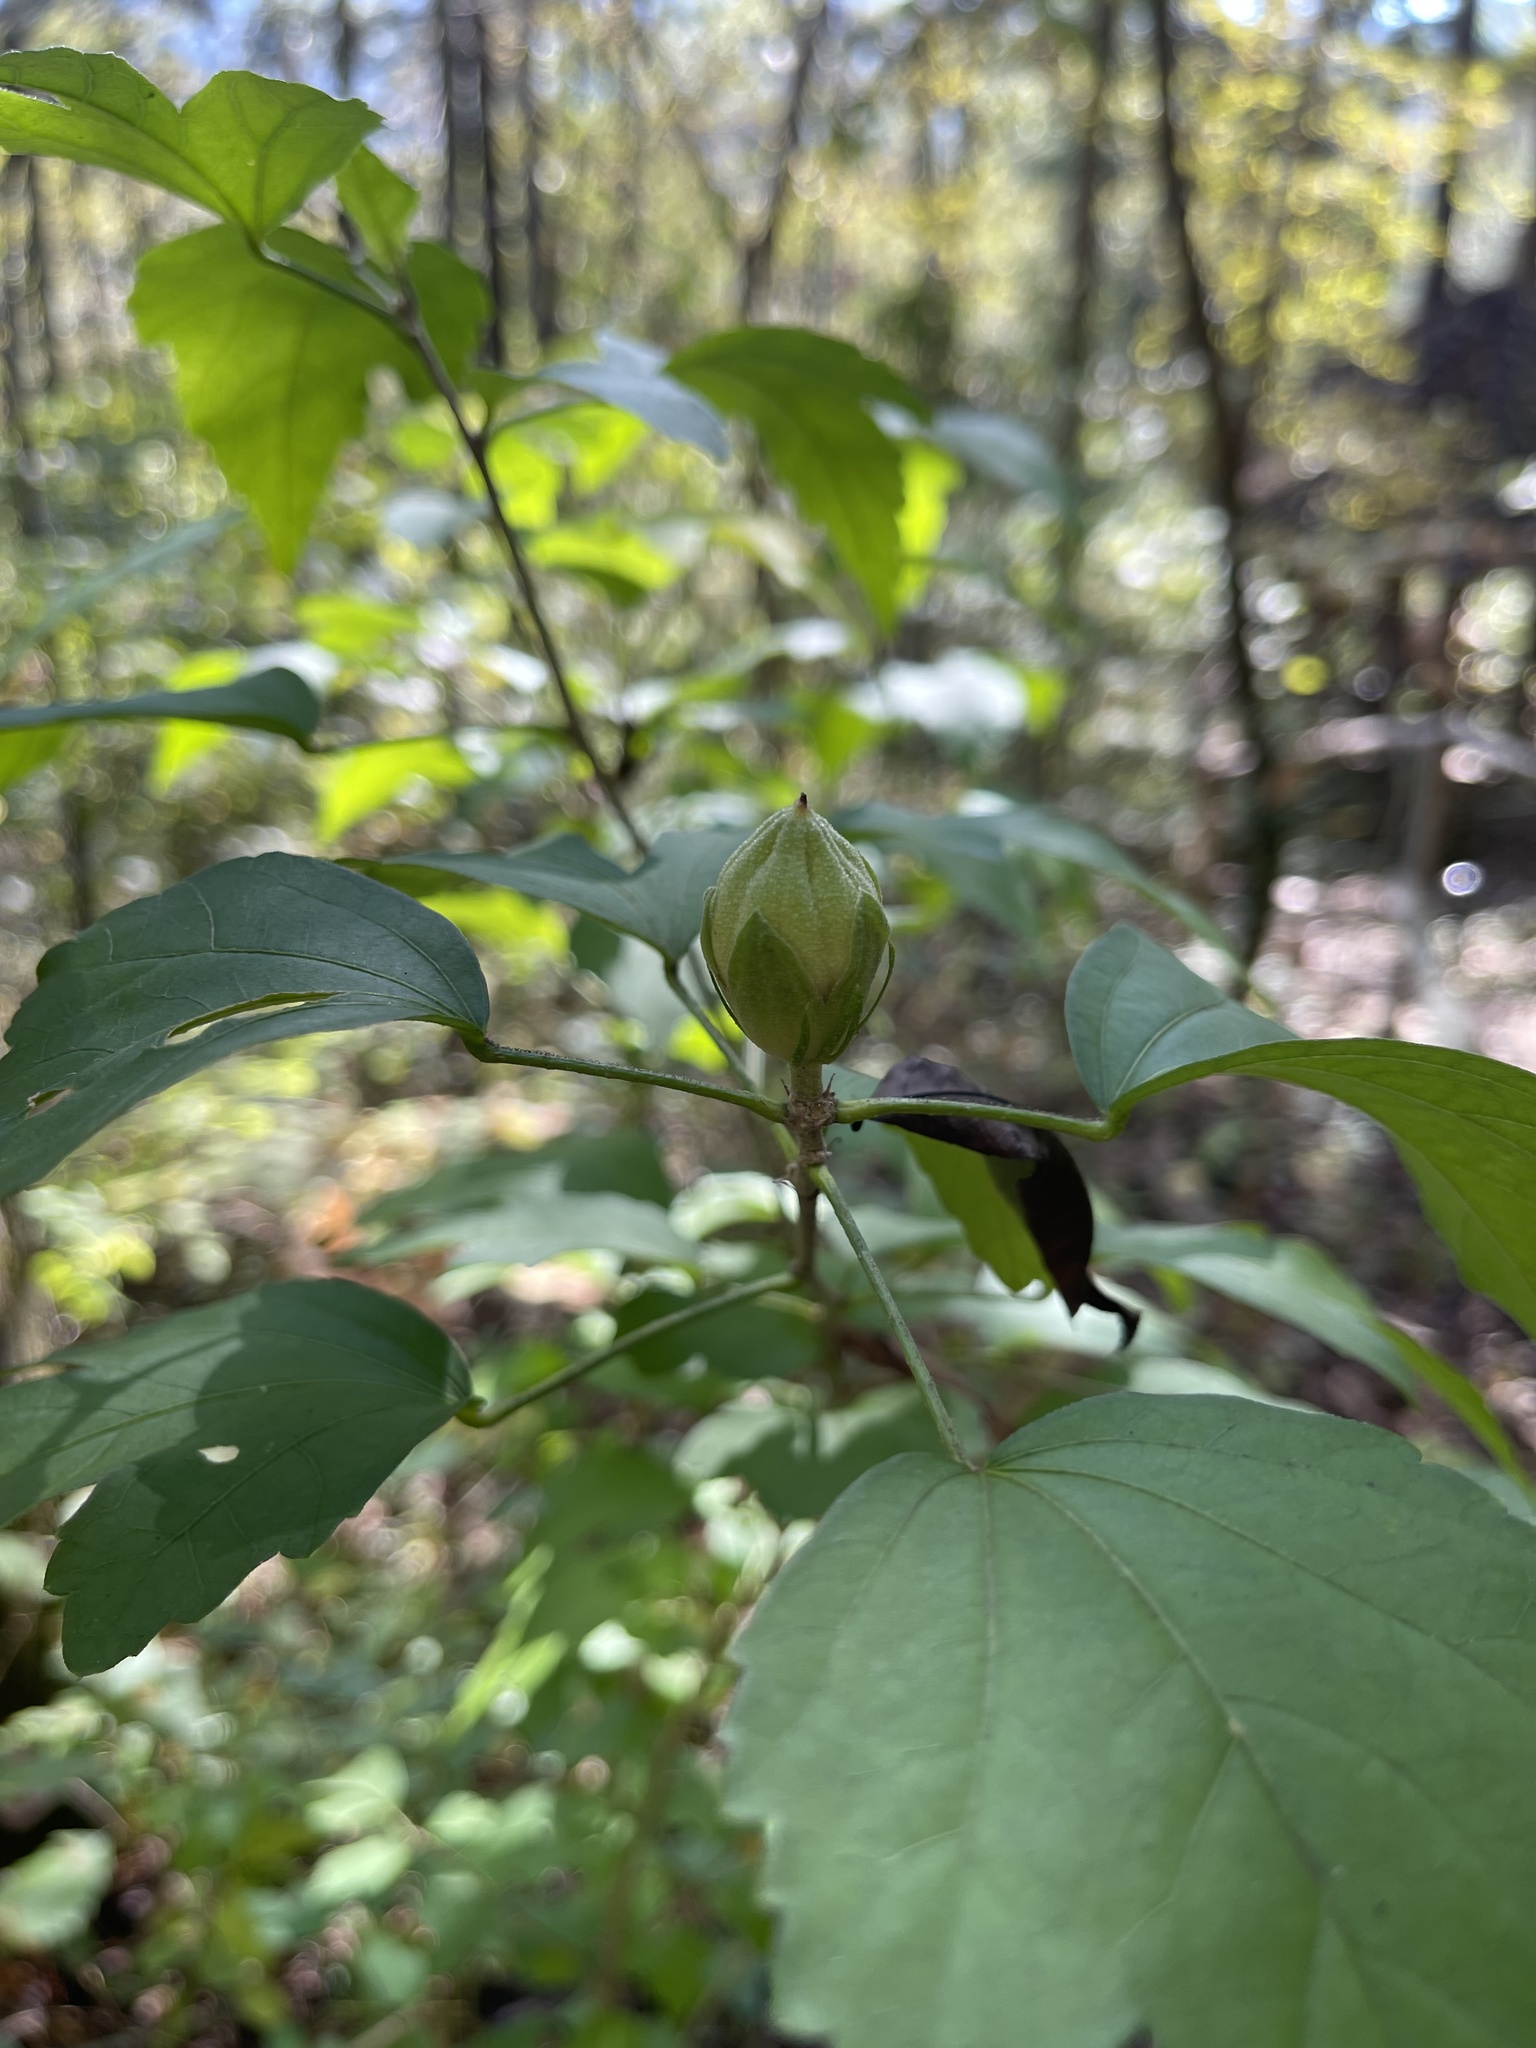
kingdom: Plantae
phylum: Tracheophyta
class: Magnoliopsida
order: Malvales
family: Malvaceae
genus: Hibiscus
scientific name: Hibiscus syriacus
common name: Syrian ketmia
